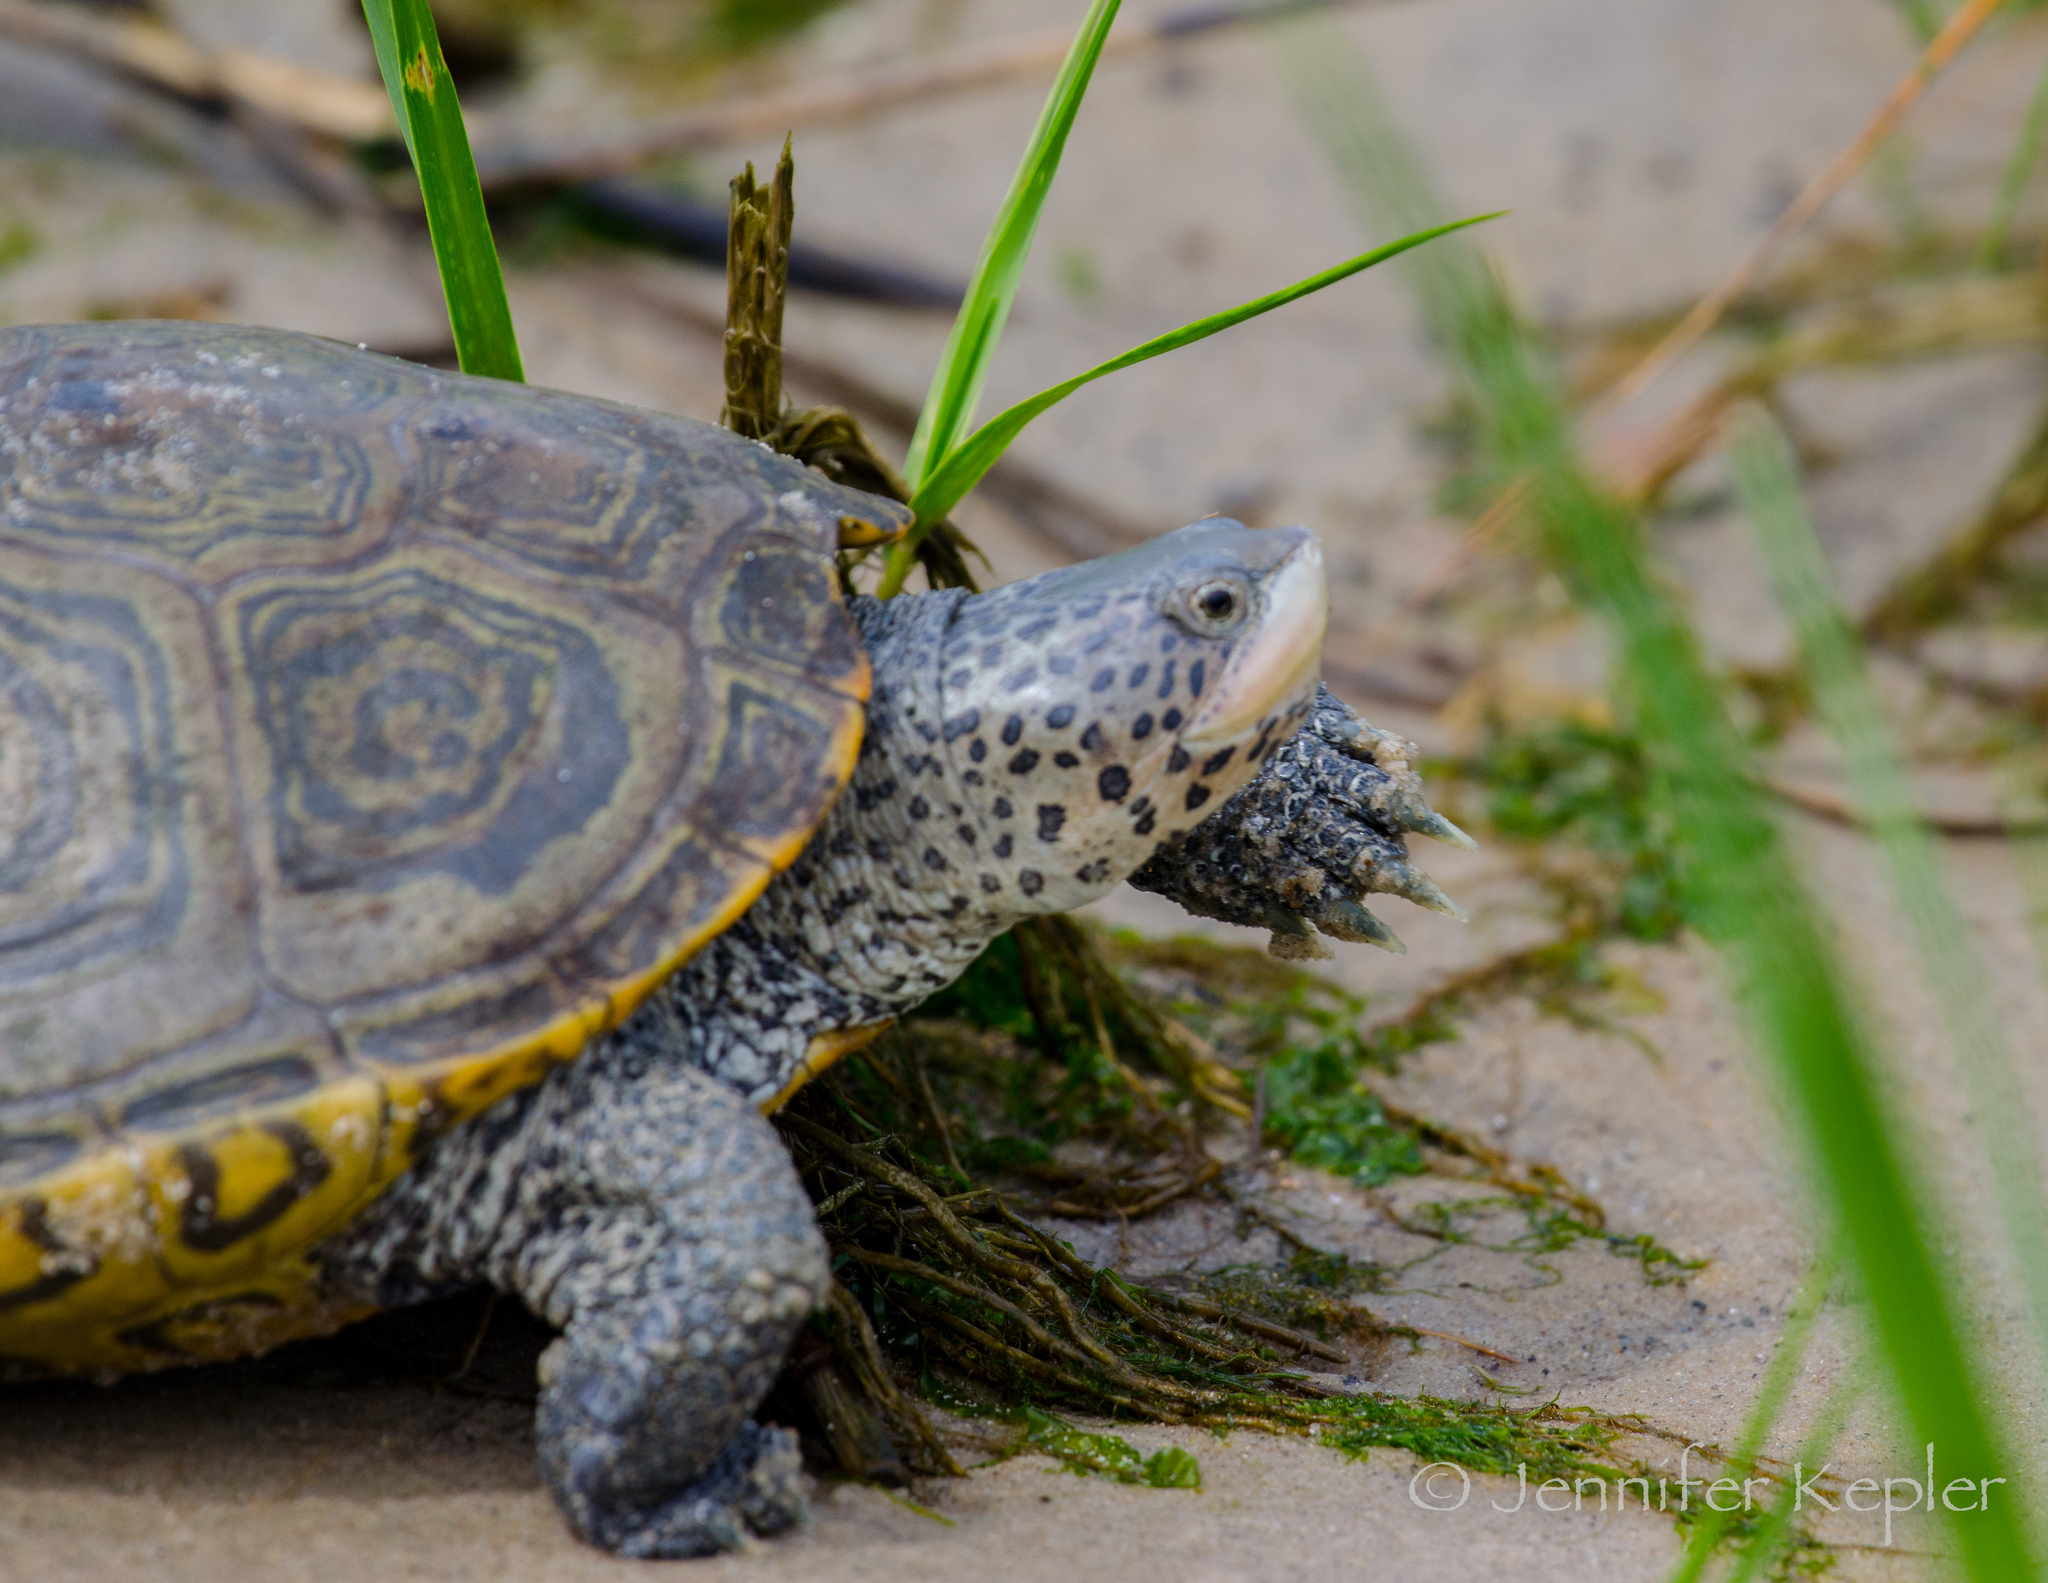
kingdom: Animalia
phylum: Chordata
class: Testudines
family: Emydidae
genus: Malaclemys
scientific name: Malaclemys terrapin
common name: Diamondback terrapin
